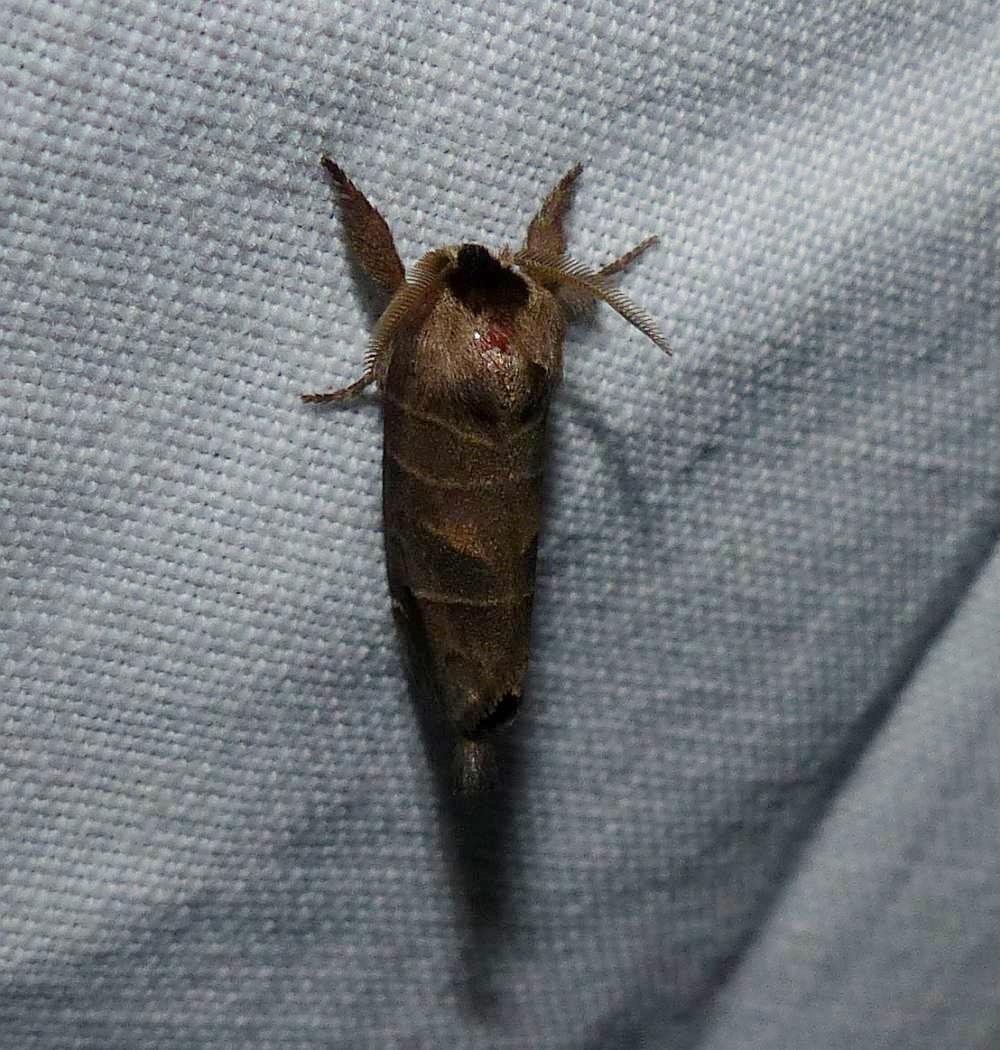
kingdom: Animalia
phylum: Arthropoda
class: Insecta
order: Lepidoptera
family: Notodontidae
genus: Clostera
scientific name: Clostera albosigma
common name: Sigmoid prominent
